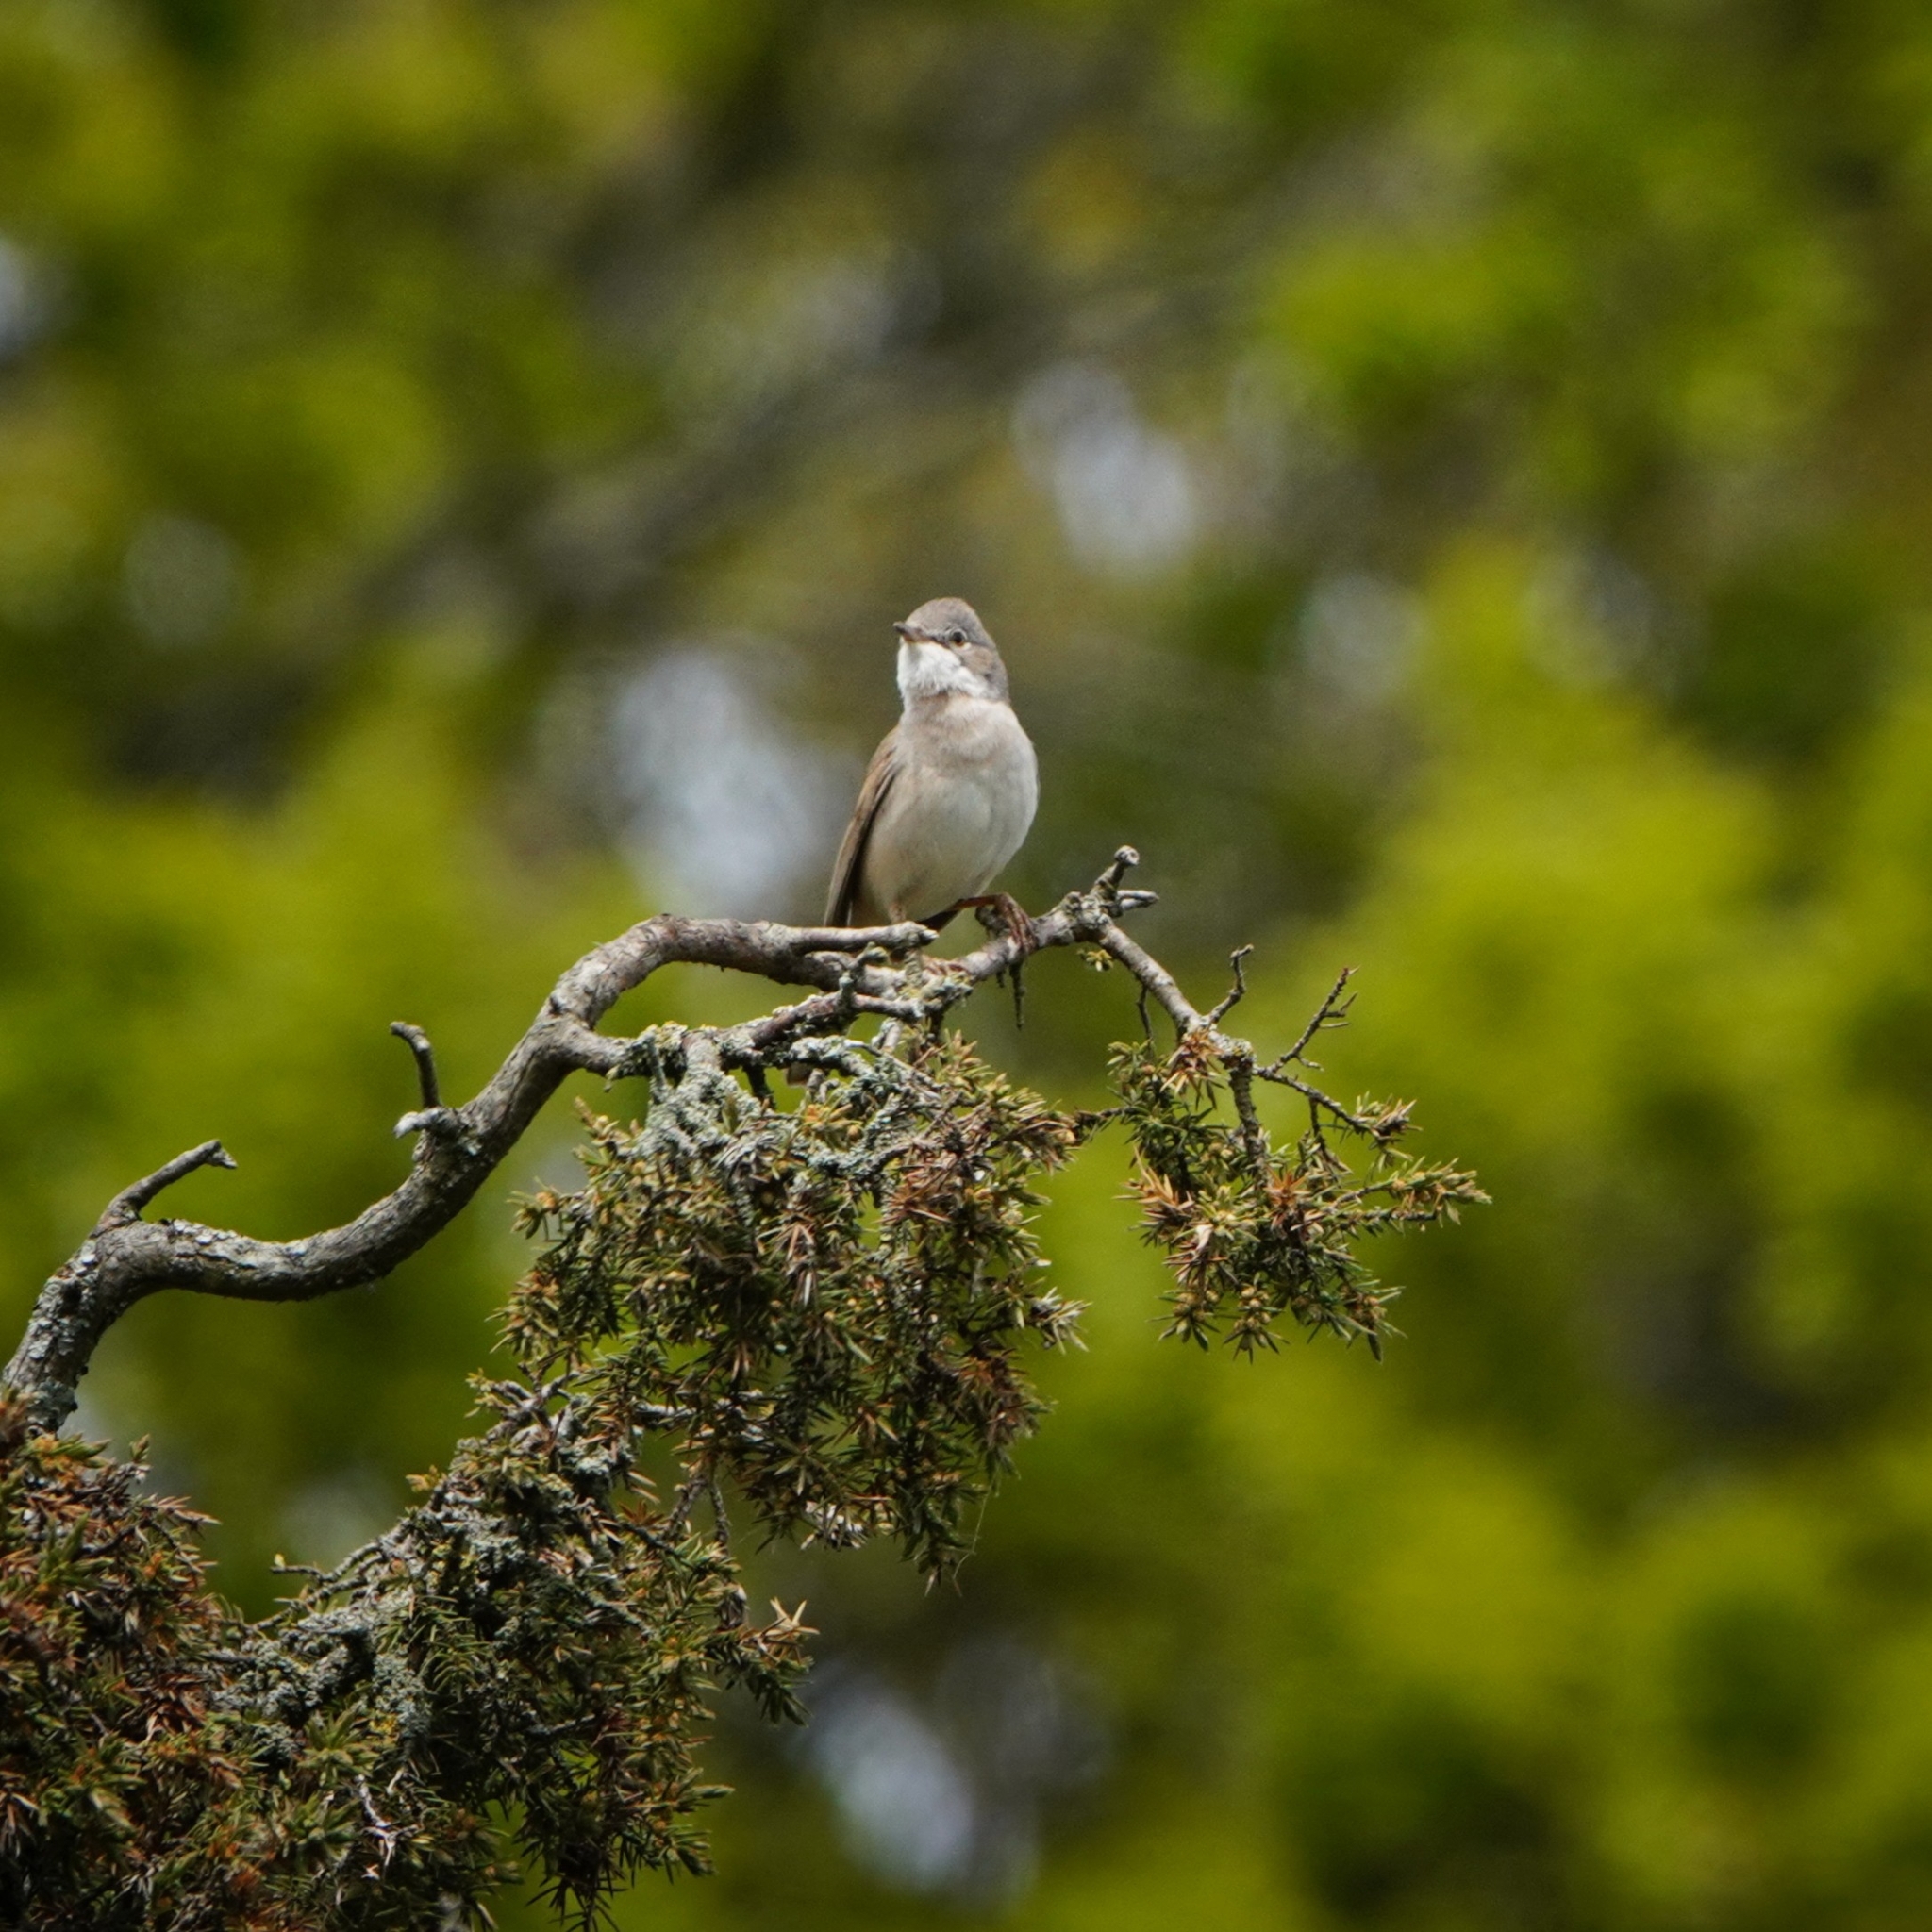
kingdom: Animalia
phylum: Chordata
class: Aves
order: Passeriformes
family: Sylviidae
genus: Sylvia
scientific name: Sylvia communis
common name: Common whitethroat
